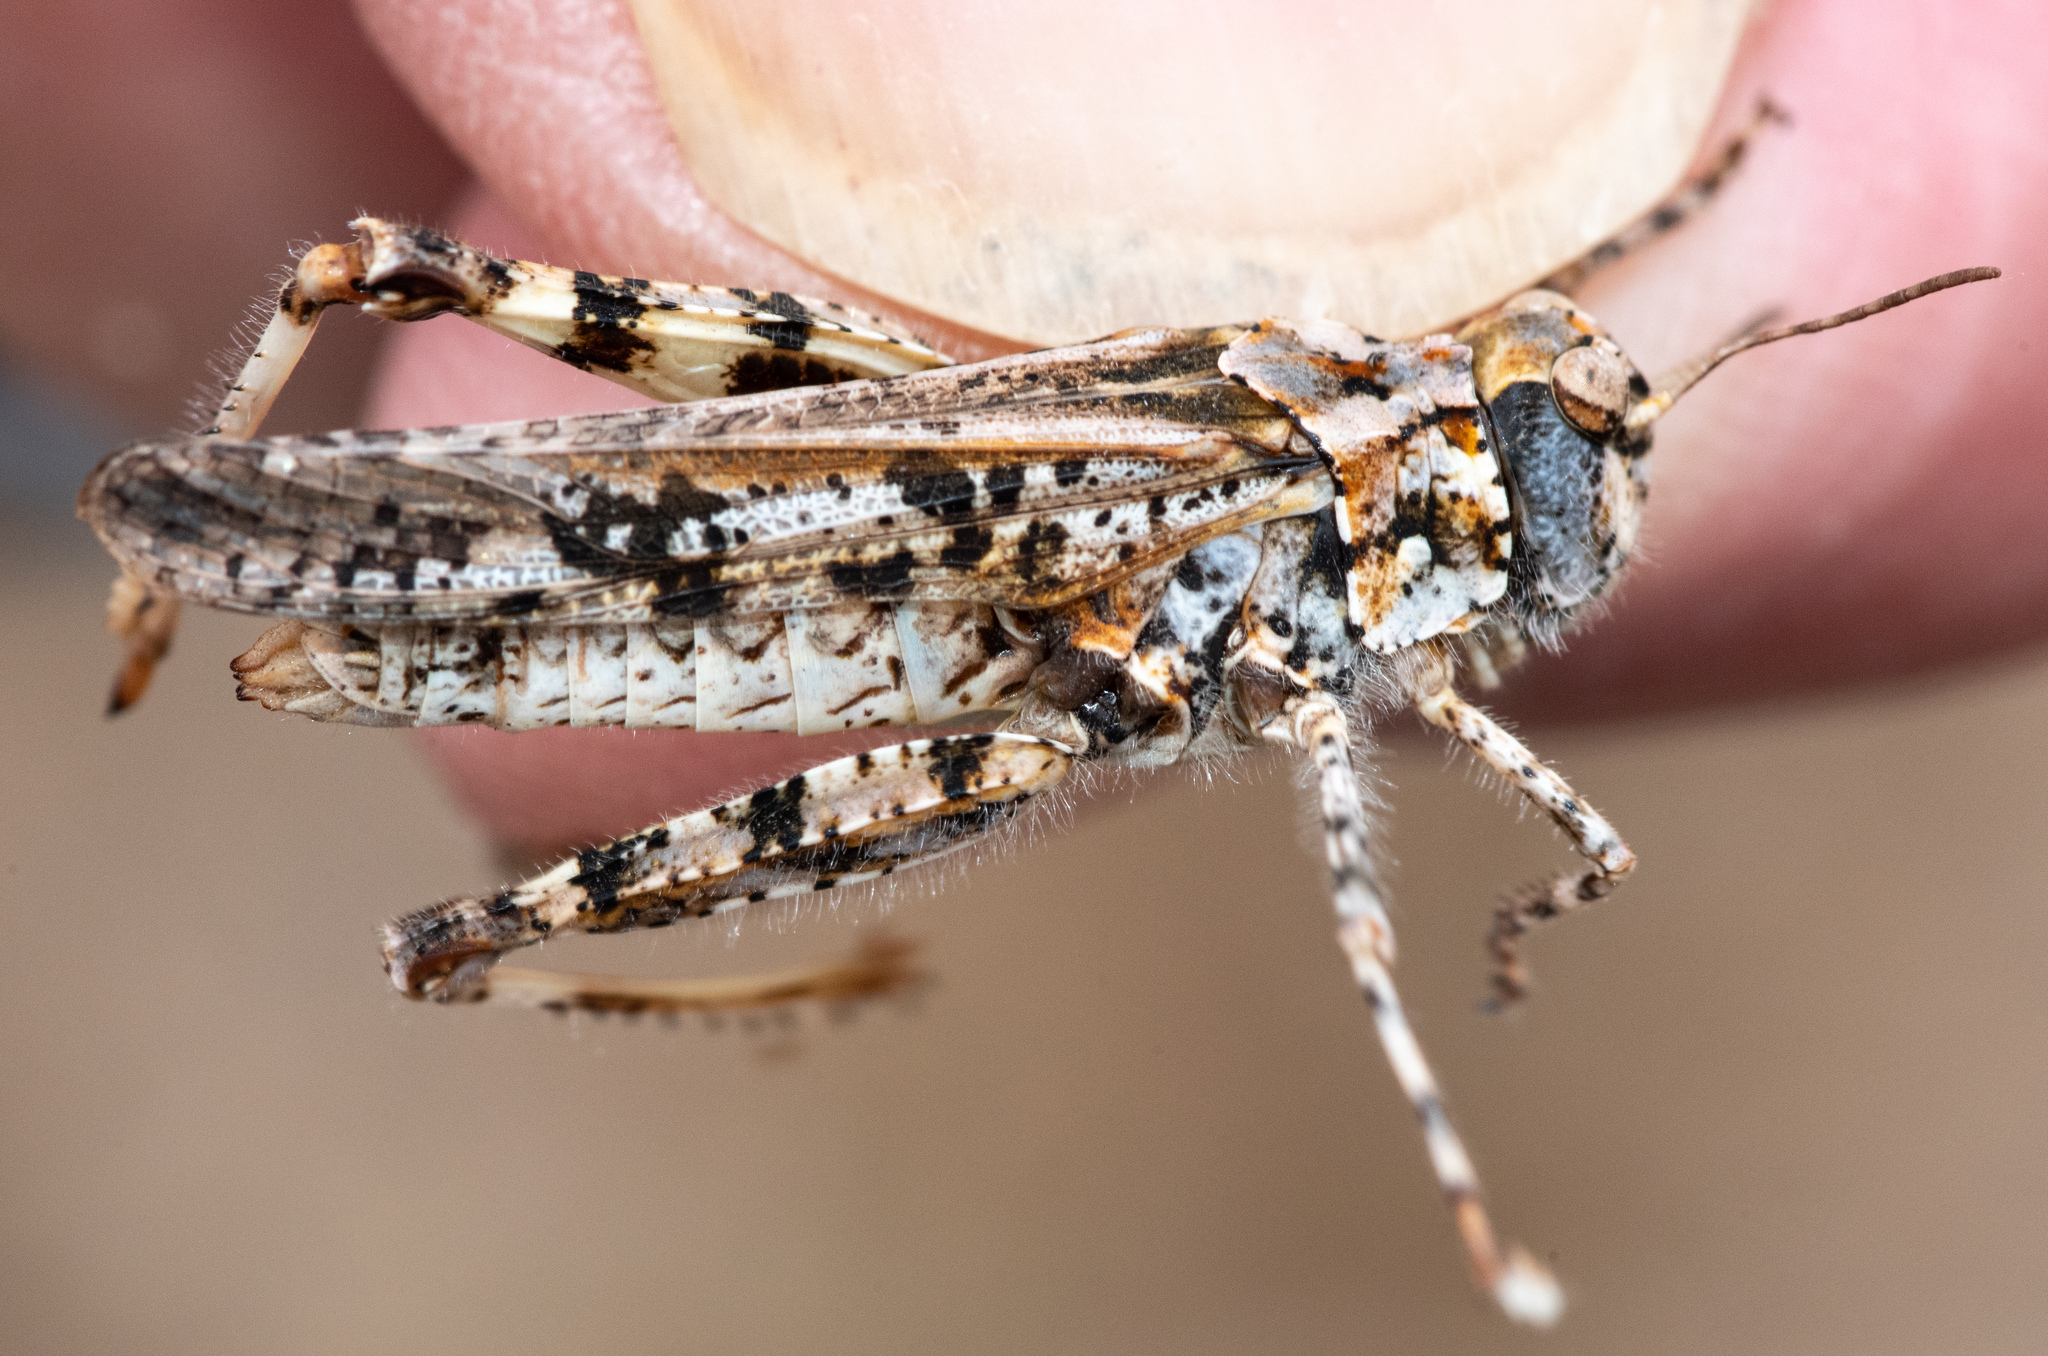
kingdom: Animalia
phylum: Arthropoda
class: Insecta
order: Orthoptera
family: Acrididae
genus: Microtes
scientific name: Microtes occidentalis
